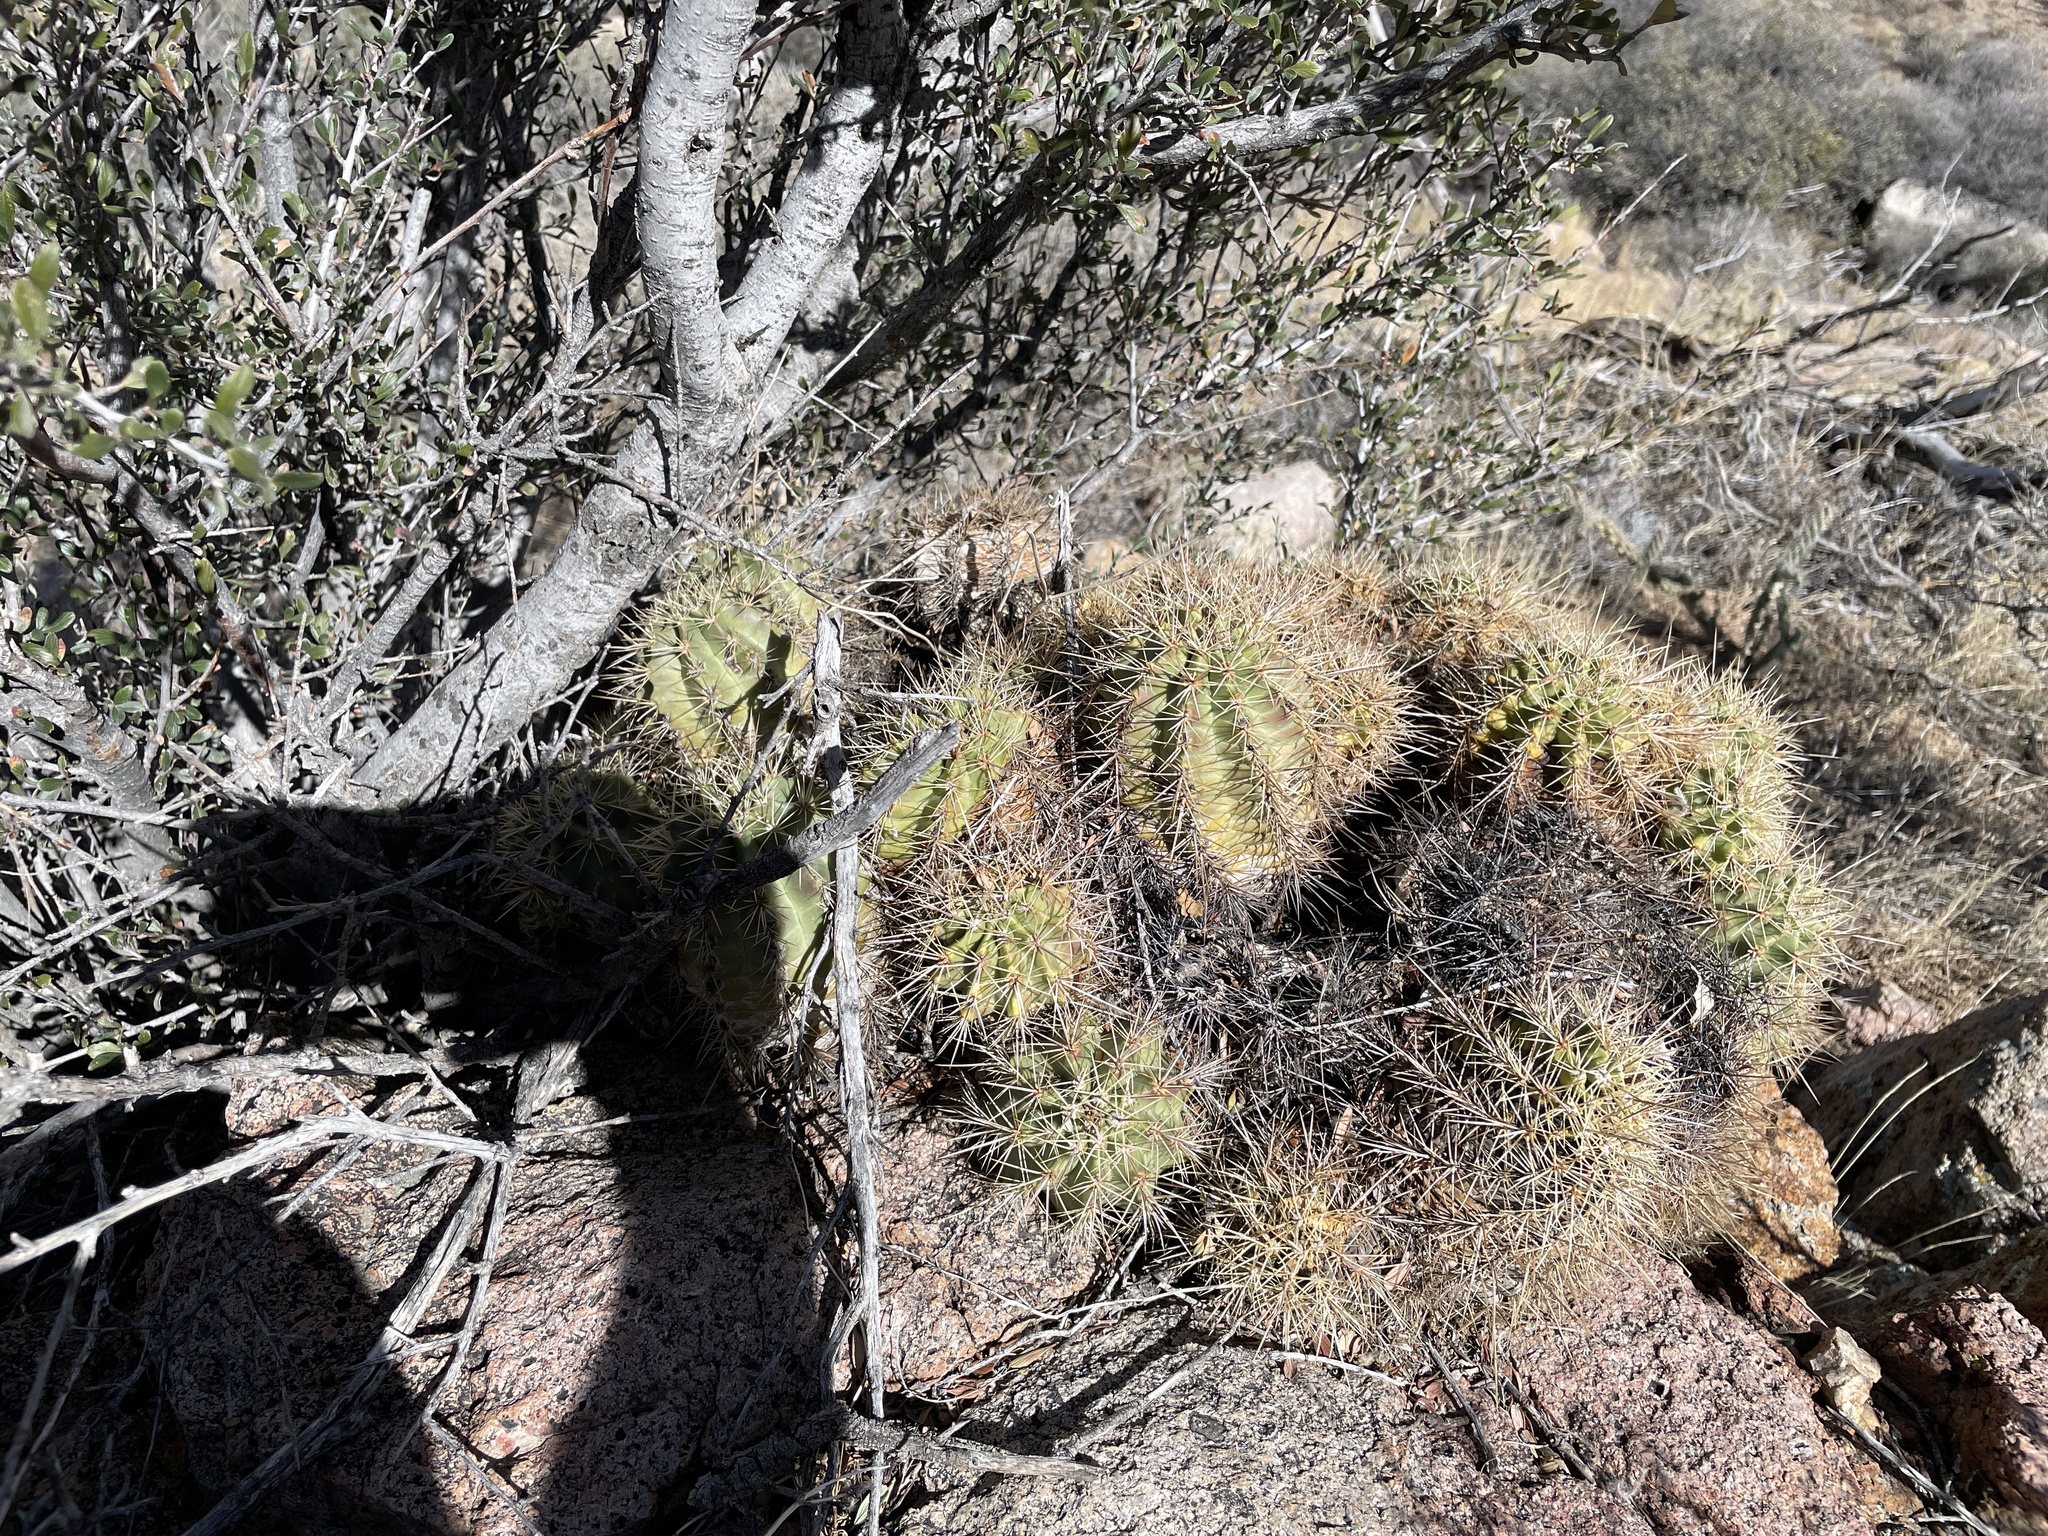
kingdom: Plantae
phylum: Tracheophyta
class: Magnoliopsida
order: Caryophyllales
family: Cactaceae
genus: Echinocereus
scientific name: Echinocereus coccineus
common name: Scarlet hedgehog cactus
